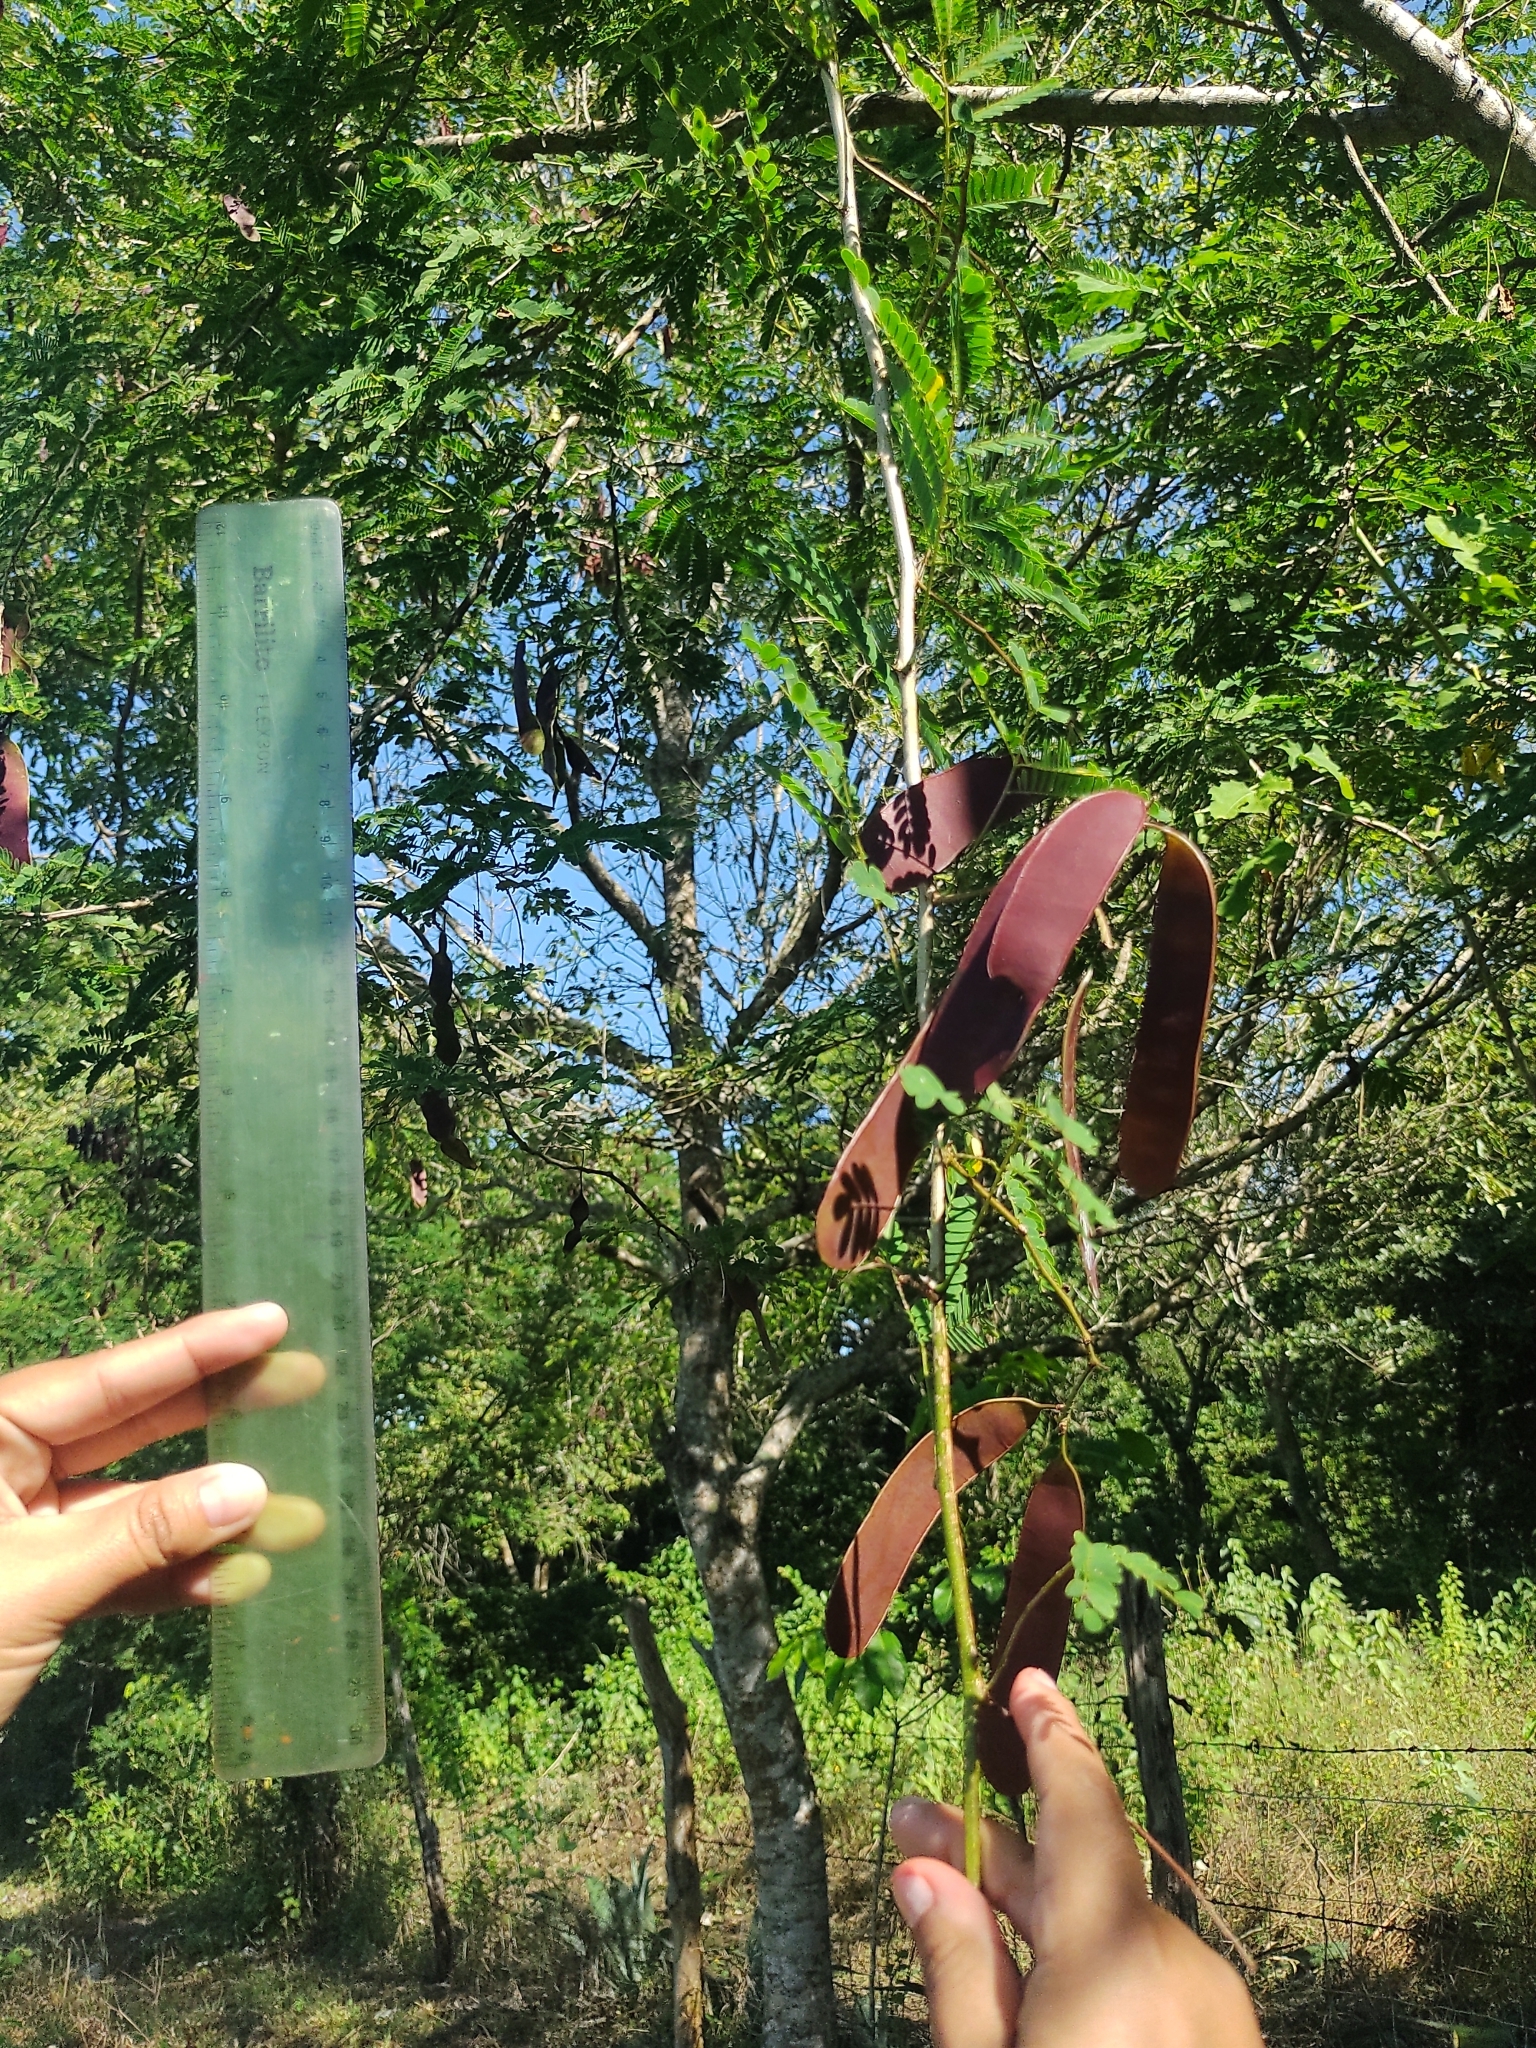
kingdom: Plantae
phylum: Tracheophyta
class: Magnoliopsida
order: Fabales
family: Fabaceae
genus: Senegalia
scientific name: Senegalia gaumeri
